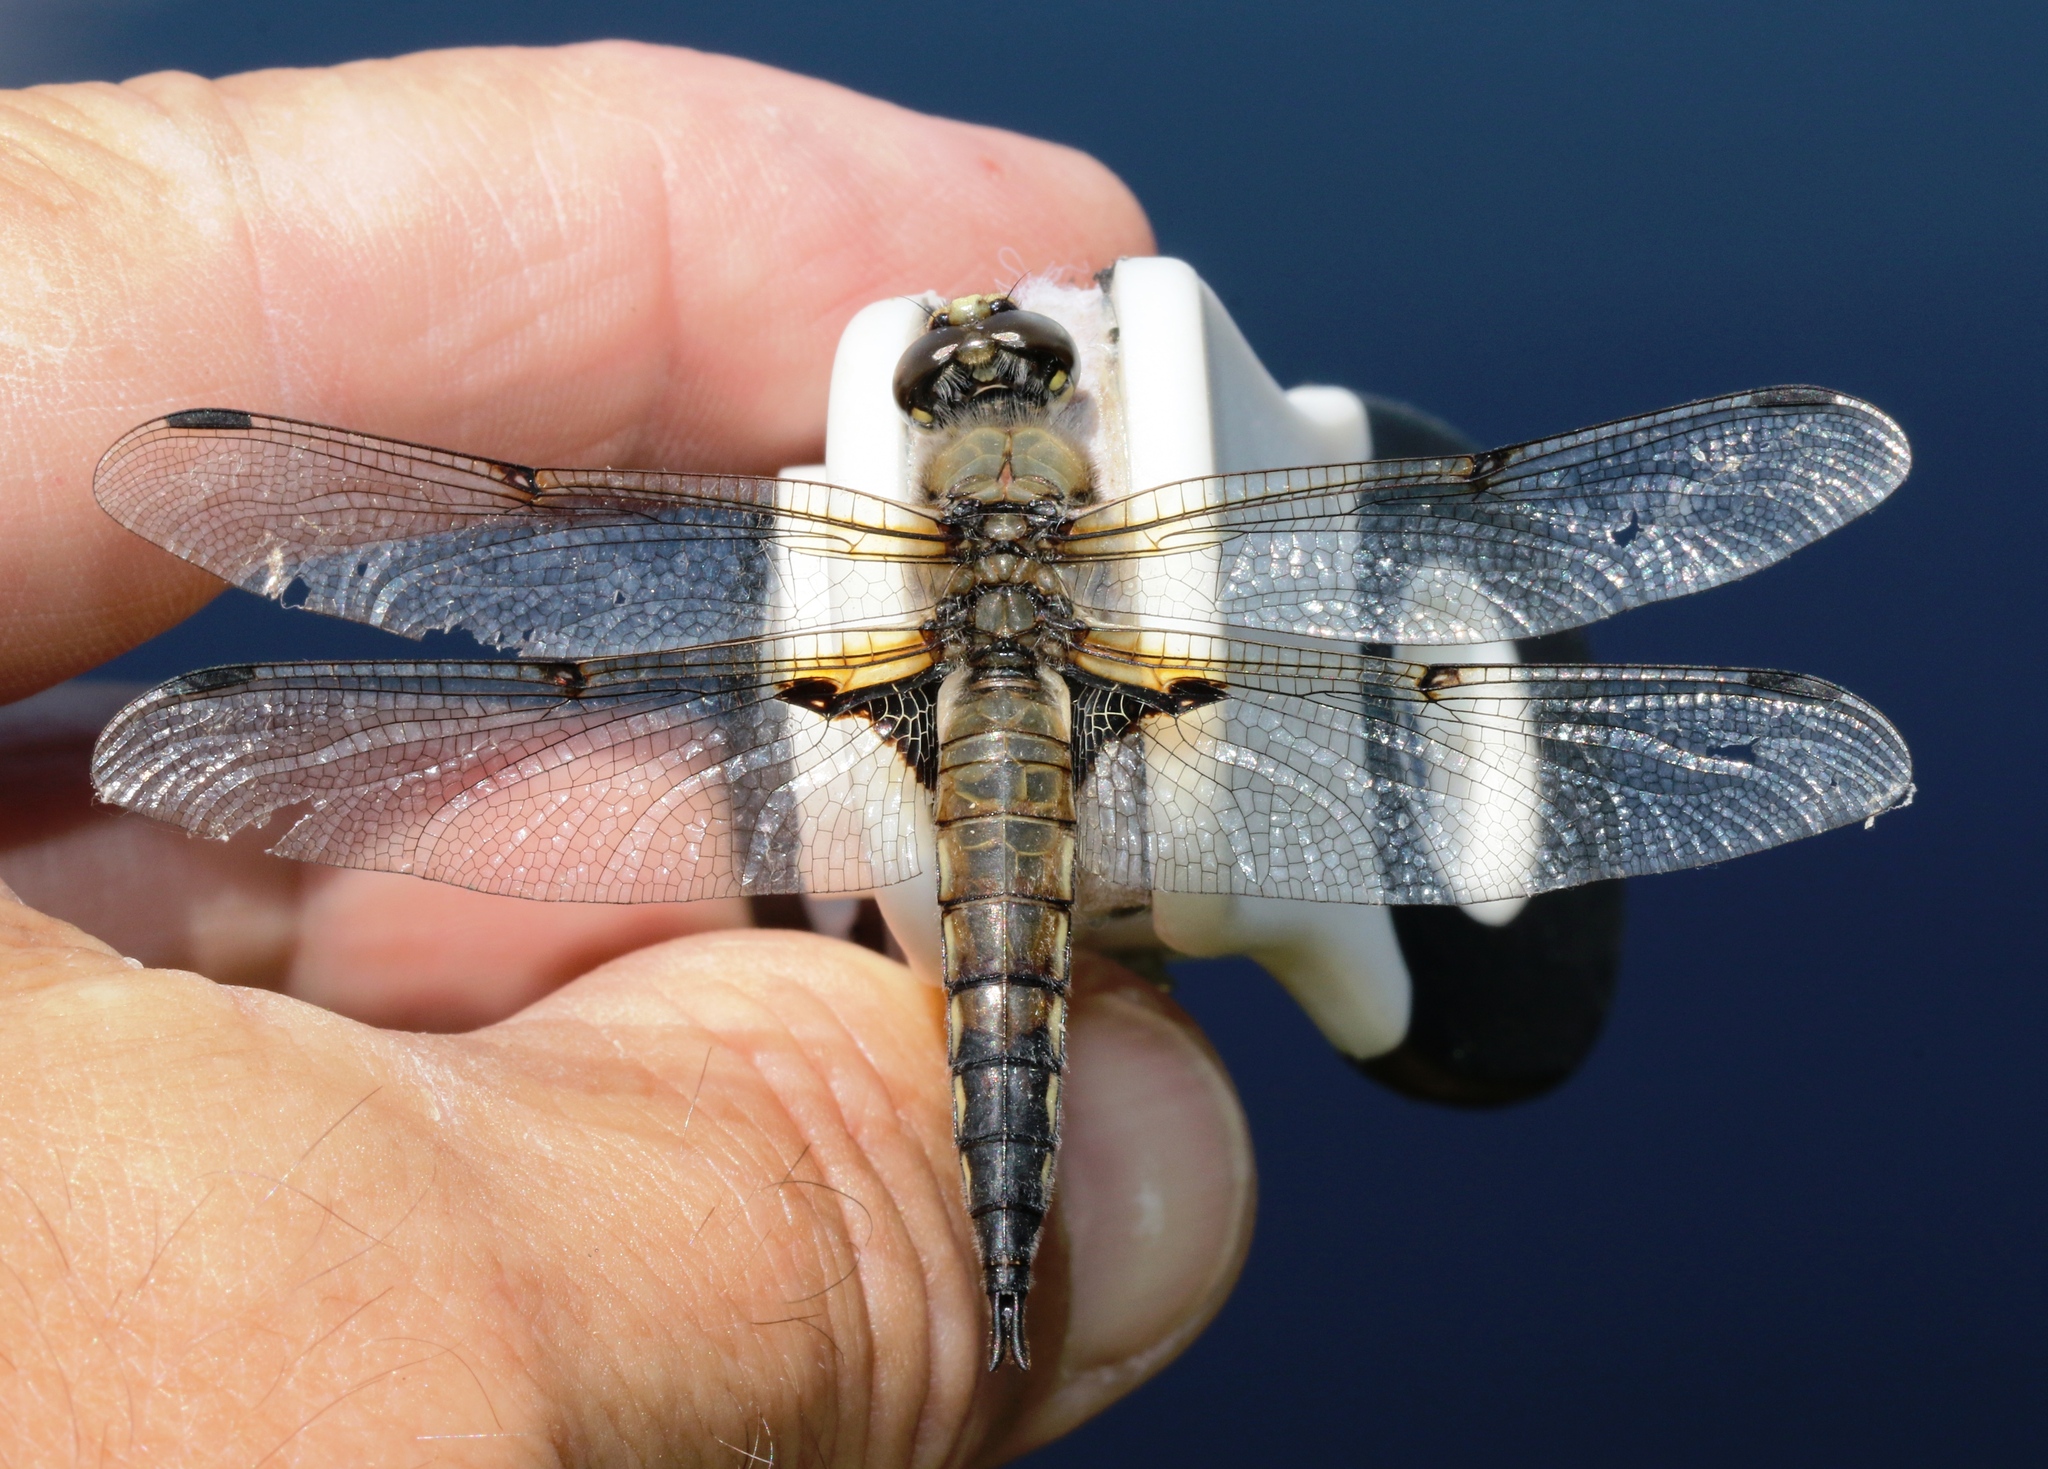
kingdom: Animalia
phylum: Arthropoda
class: Insecta
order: Odonata
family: Libellulidae
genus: Libellula
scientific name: Libellula quadrimaculata
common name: Four-spotted chaser
